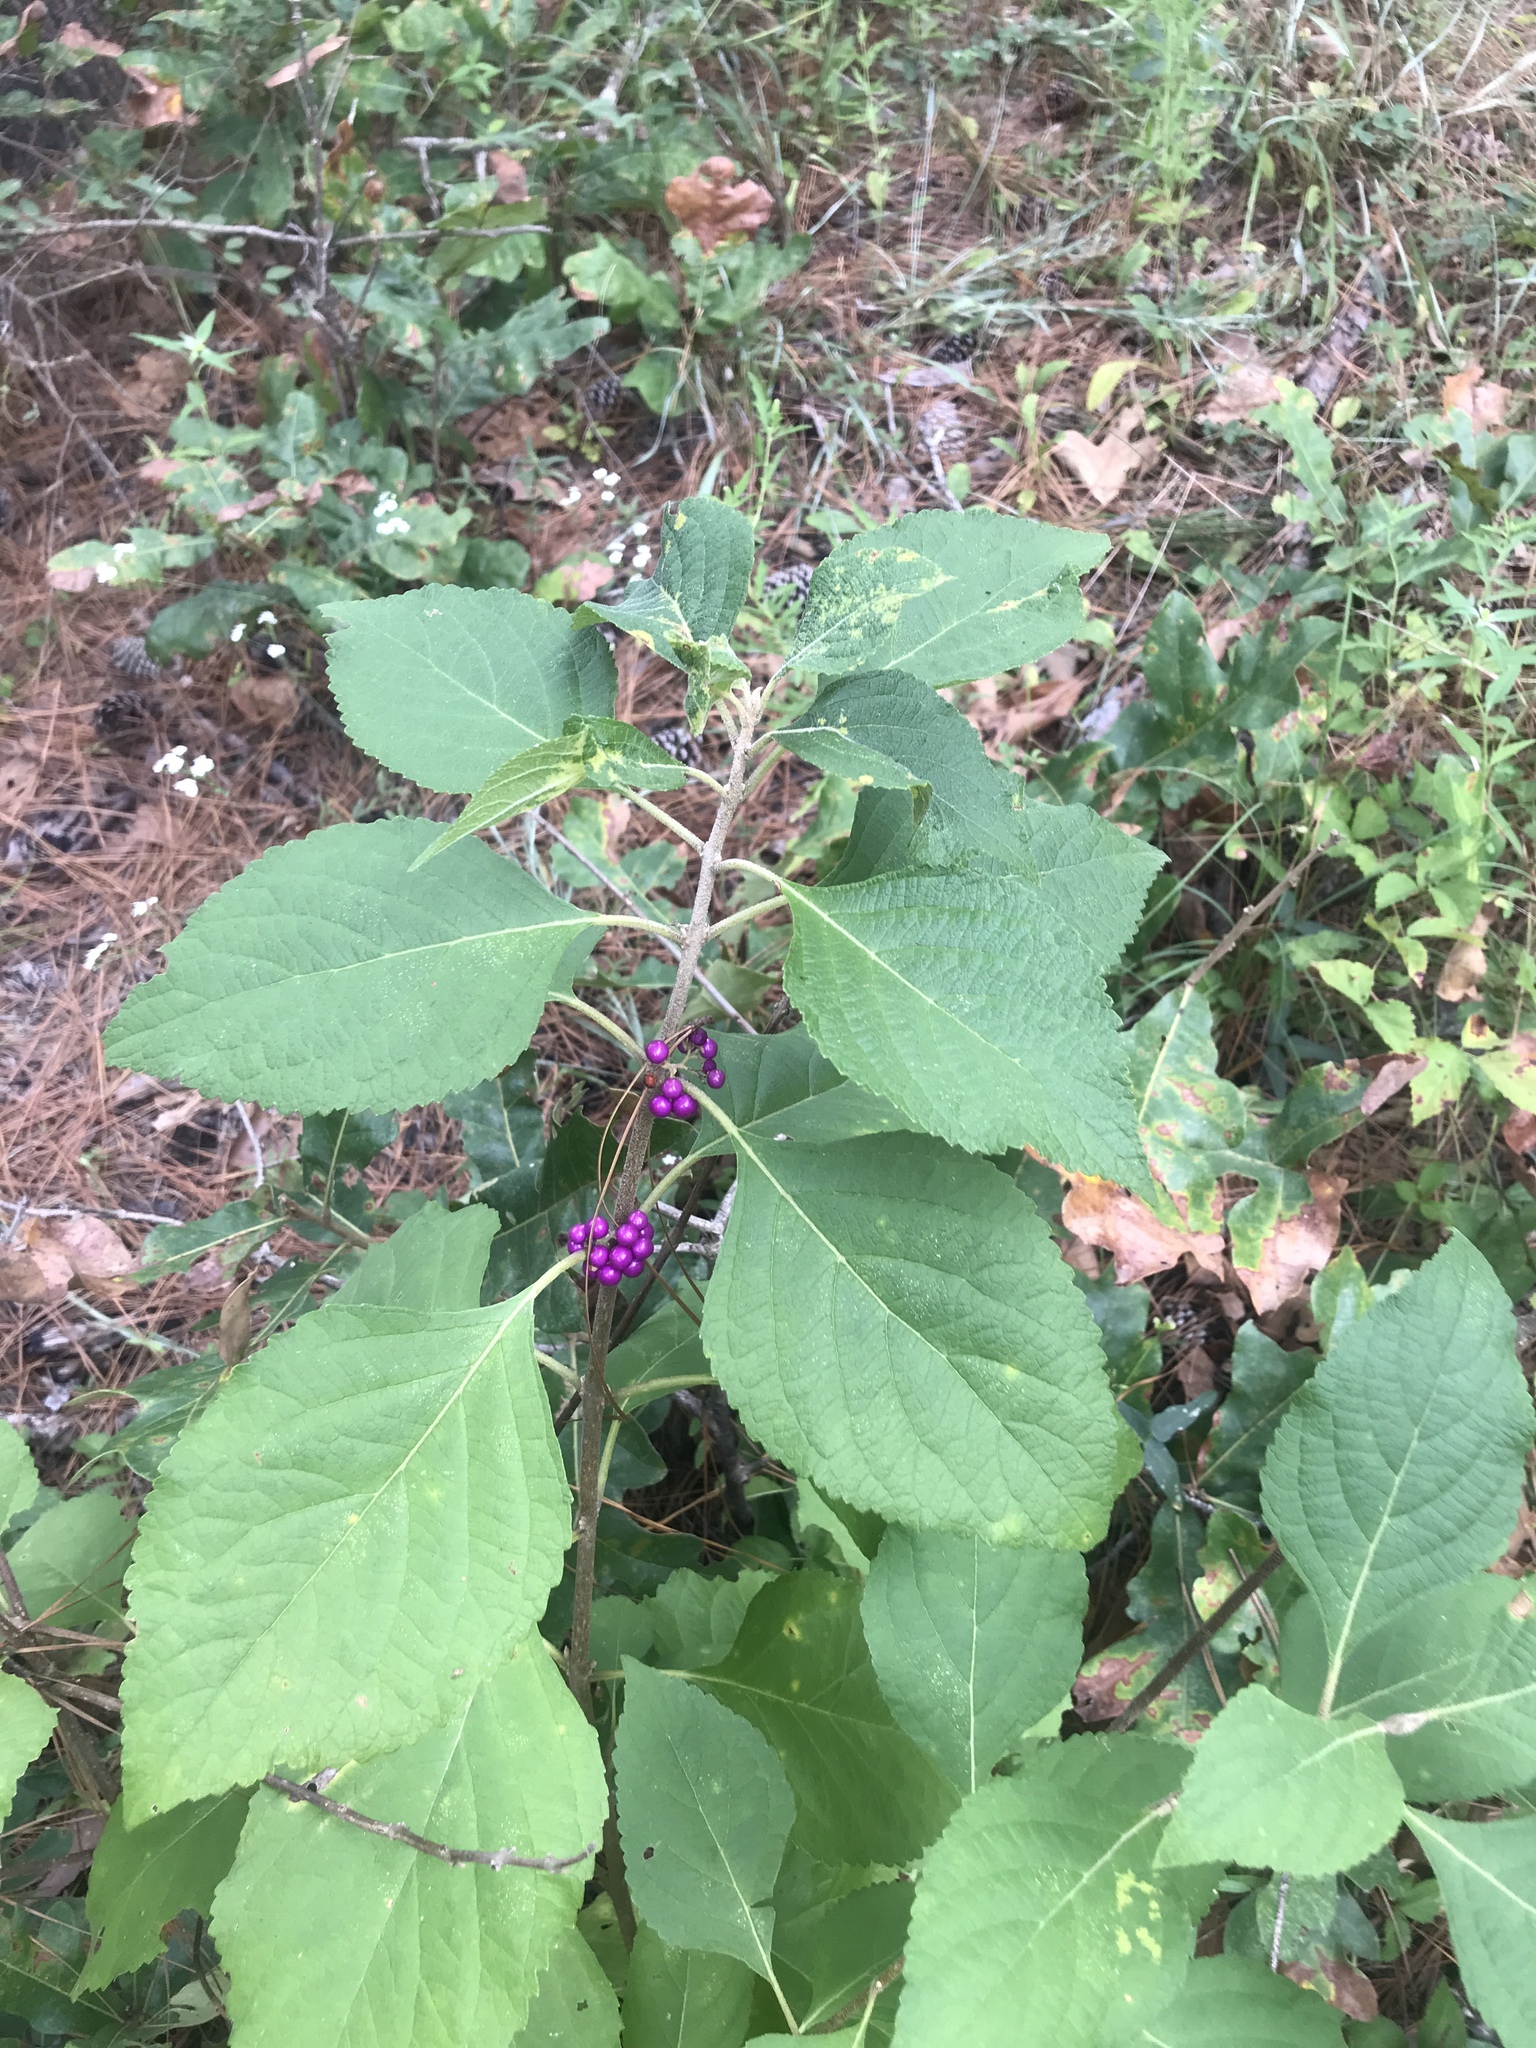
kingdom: Plantae
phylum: Tracheophyta
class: Magnoliopsida
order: Lamiales
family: Lamiaceae
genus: Callicarpa
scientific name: Callicarpa americana
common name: American beautyberry
